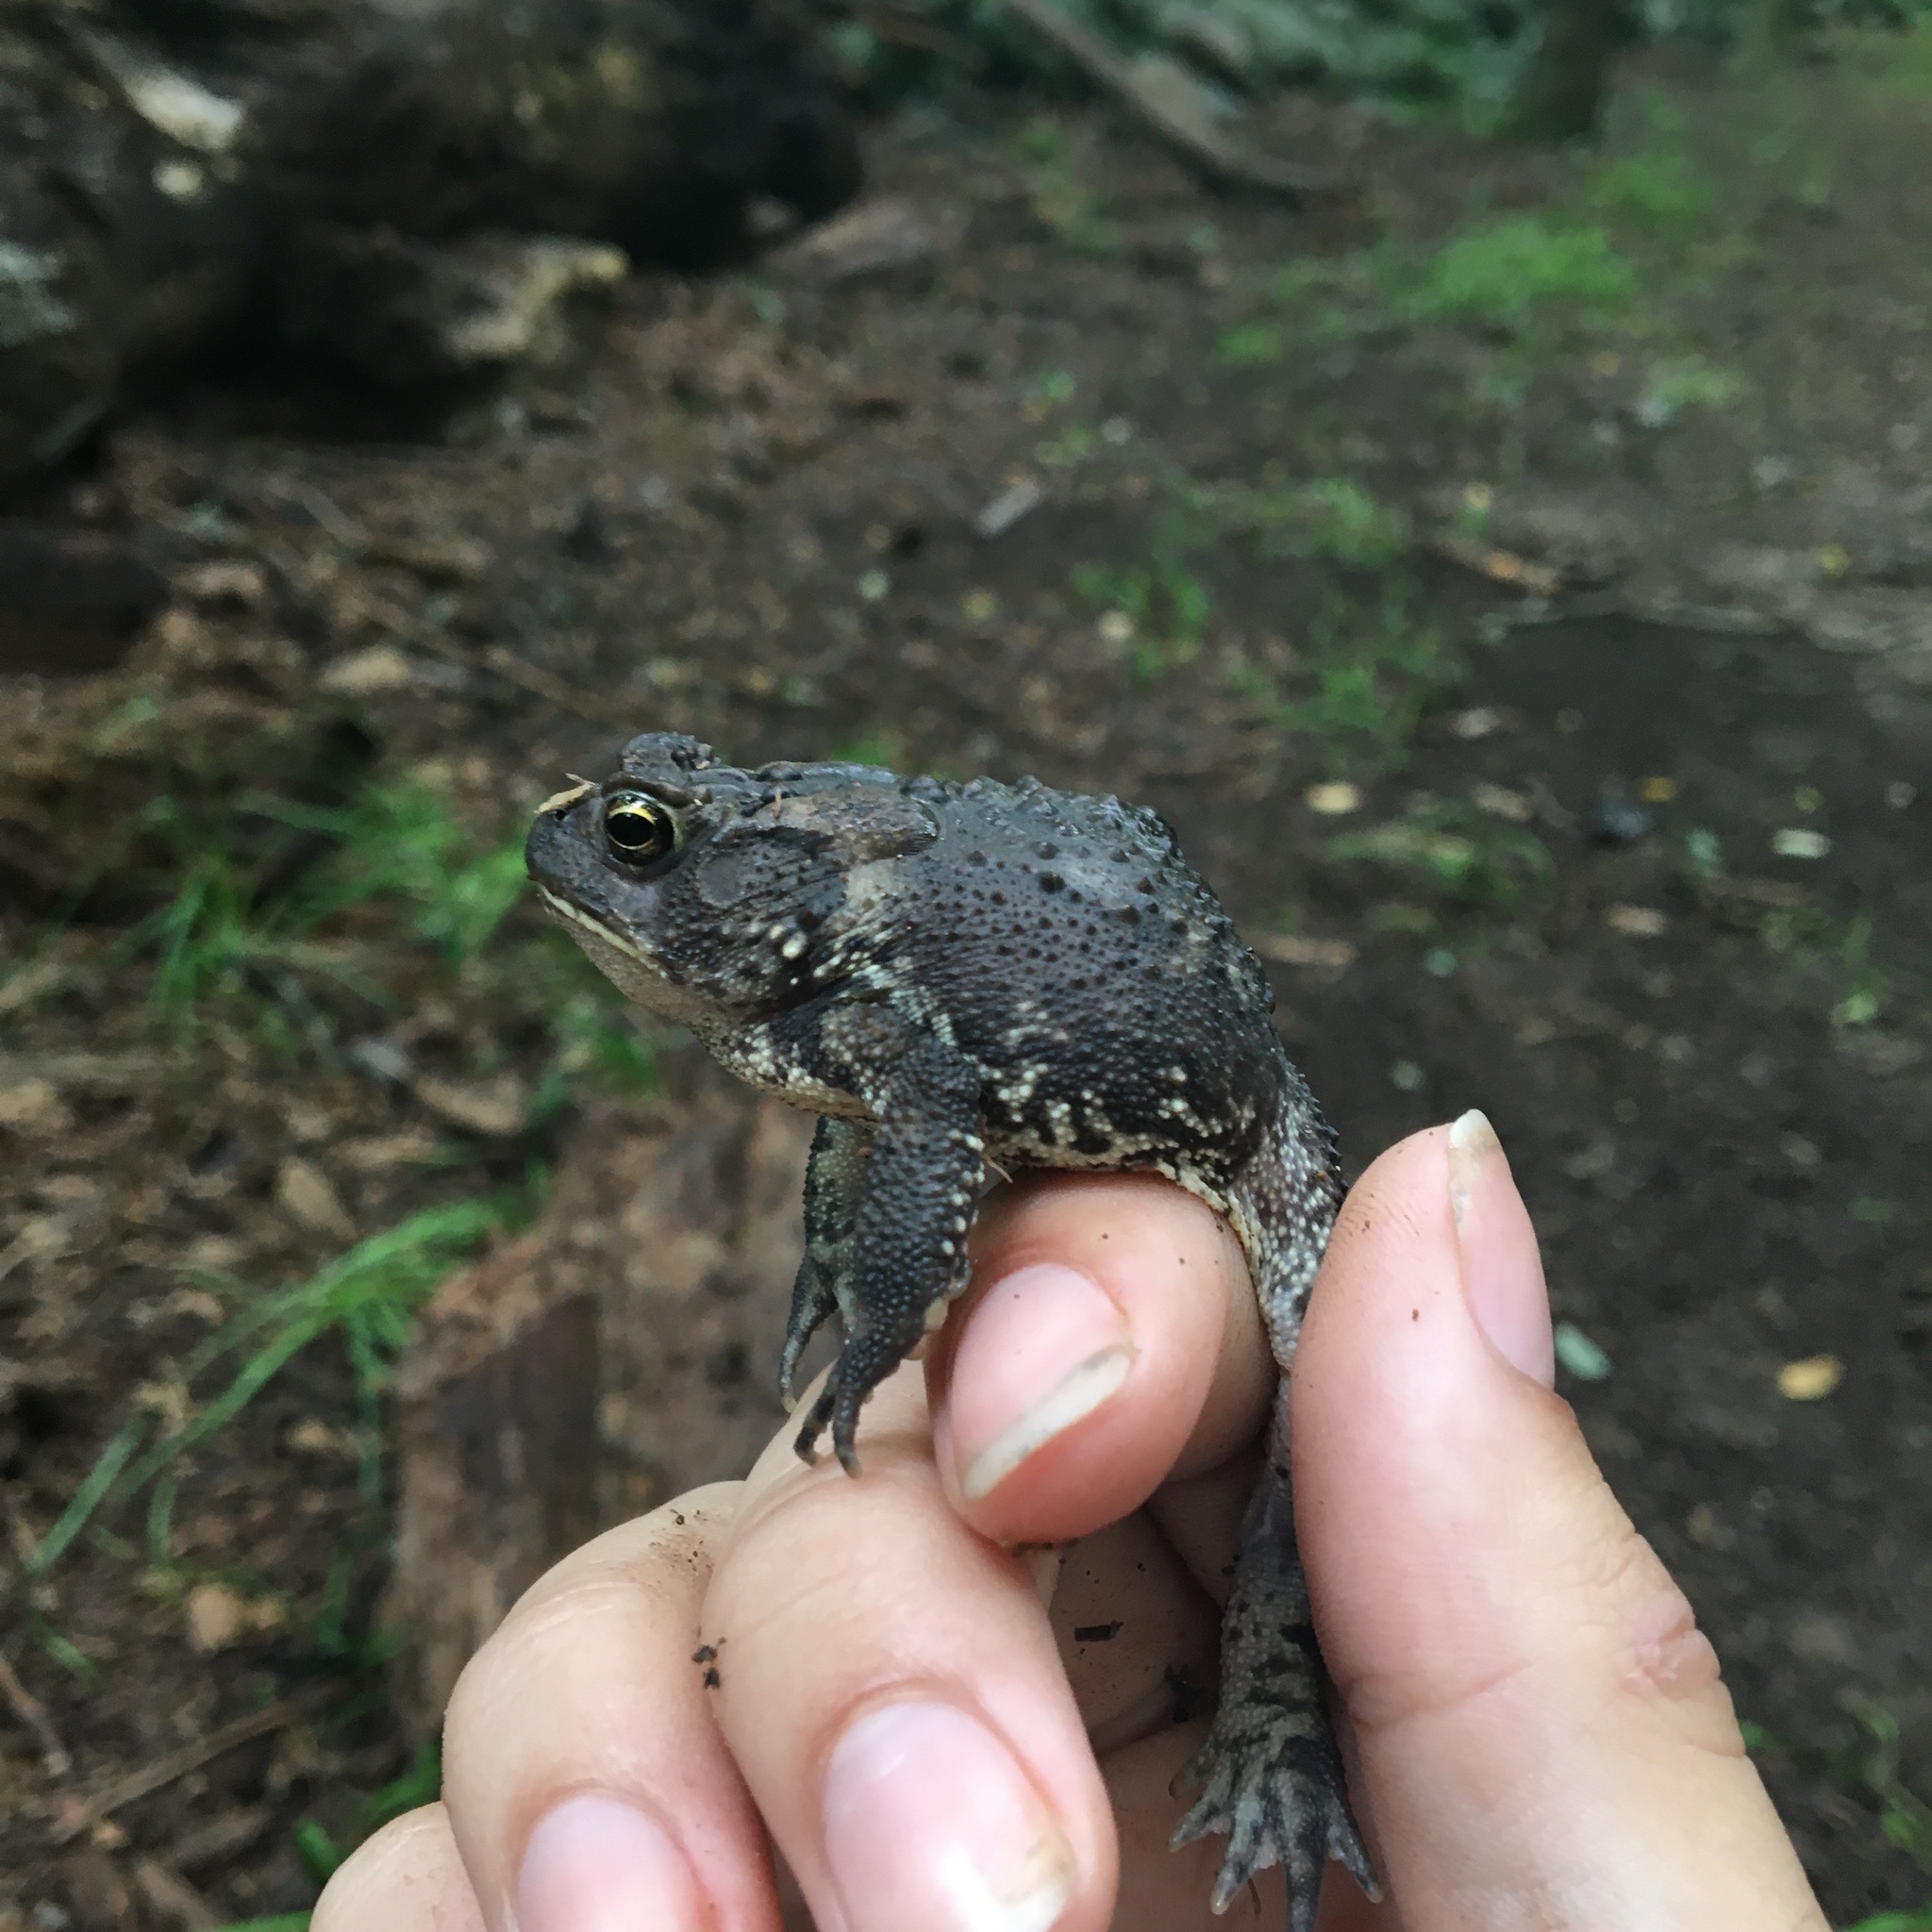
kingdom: Animalia
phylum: Chordata
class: Amphibia
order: Anura
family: Bufonidae
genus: Anaxyrus
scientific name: Anaxyrus americanus
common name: American toad
